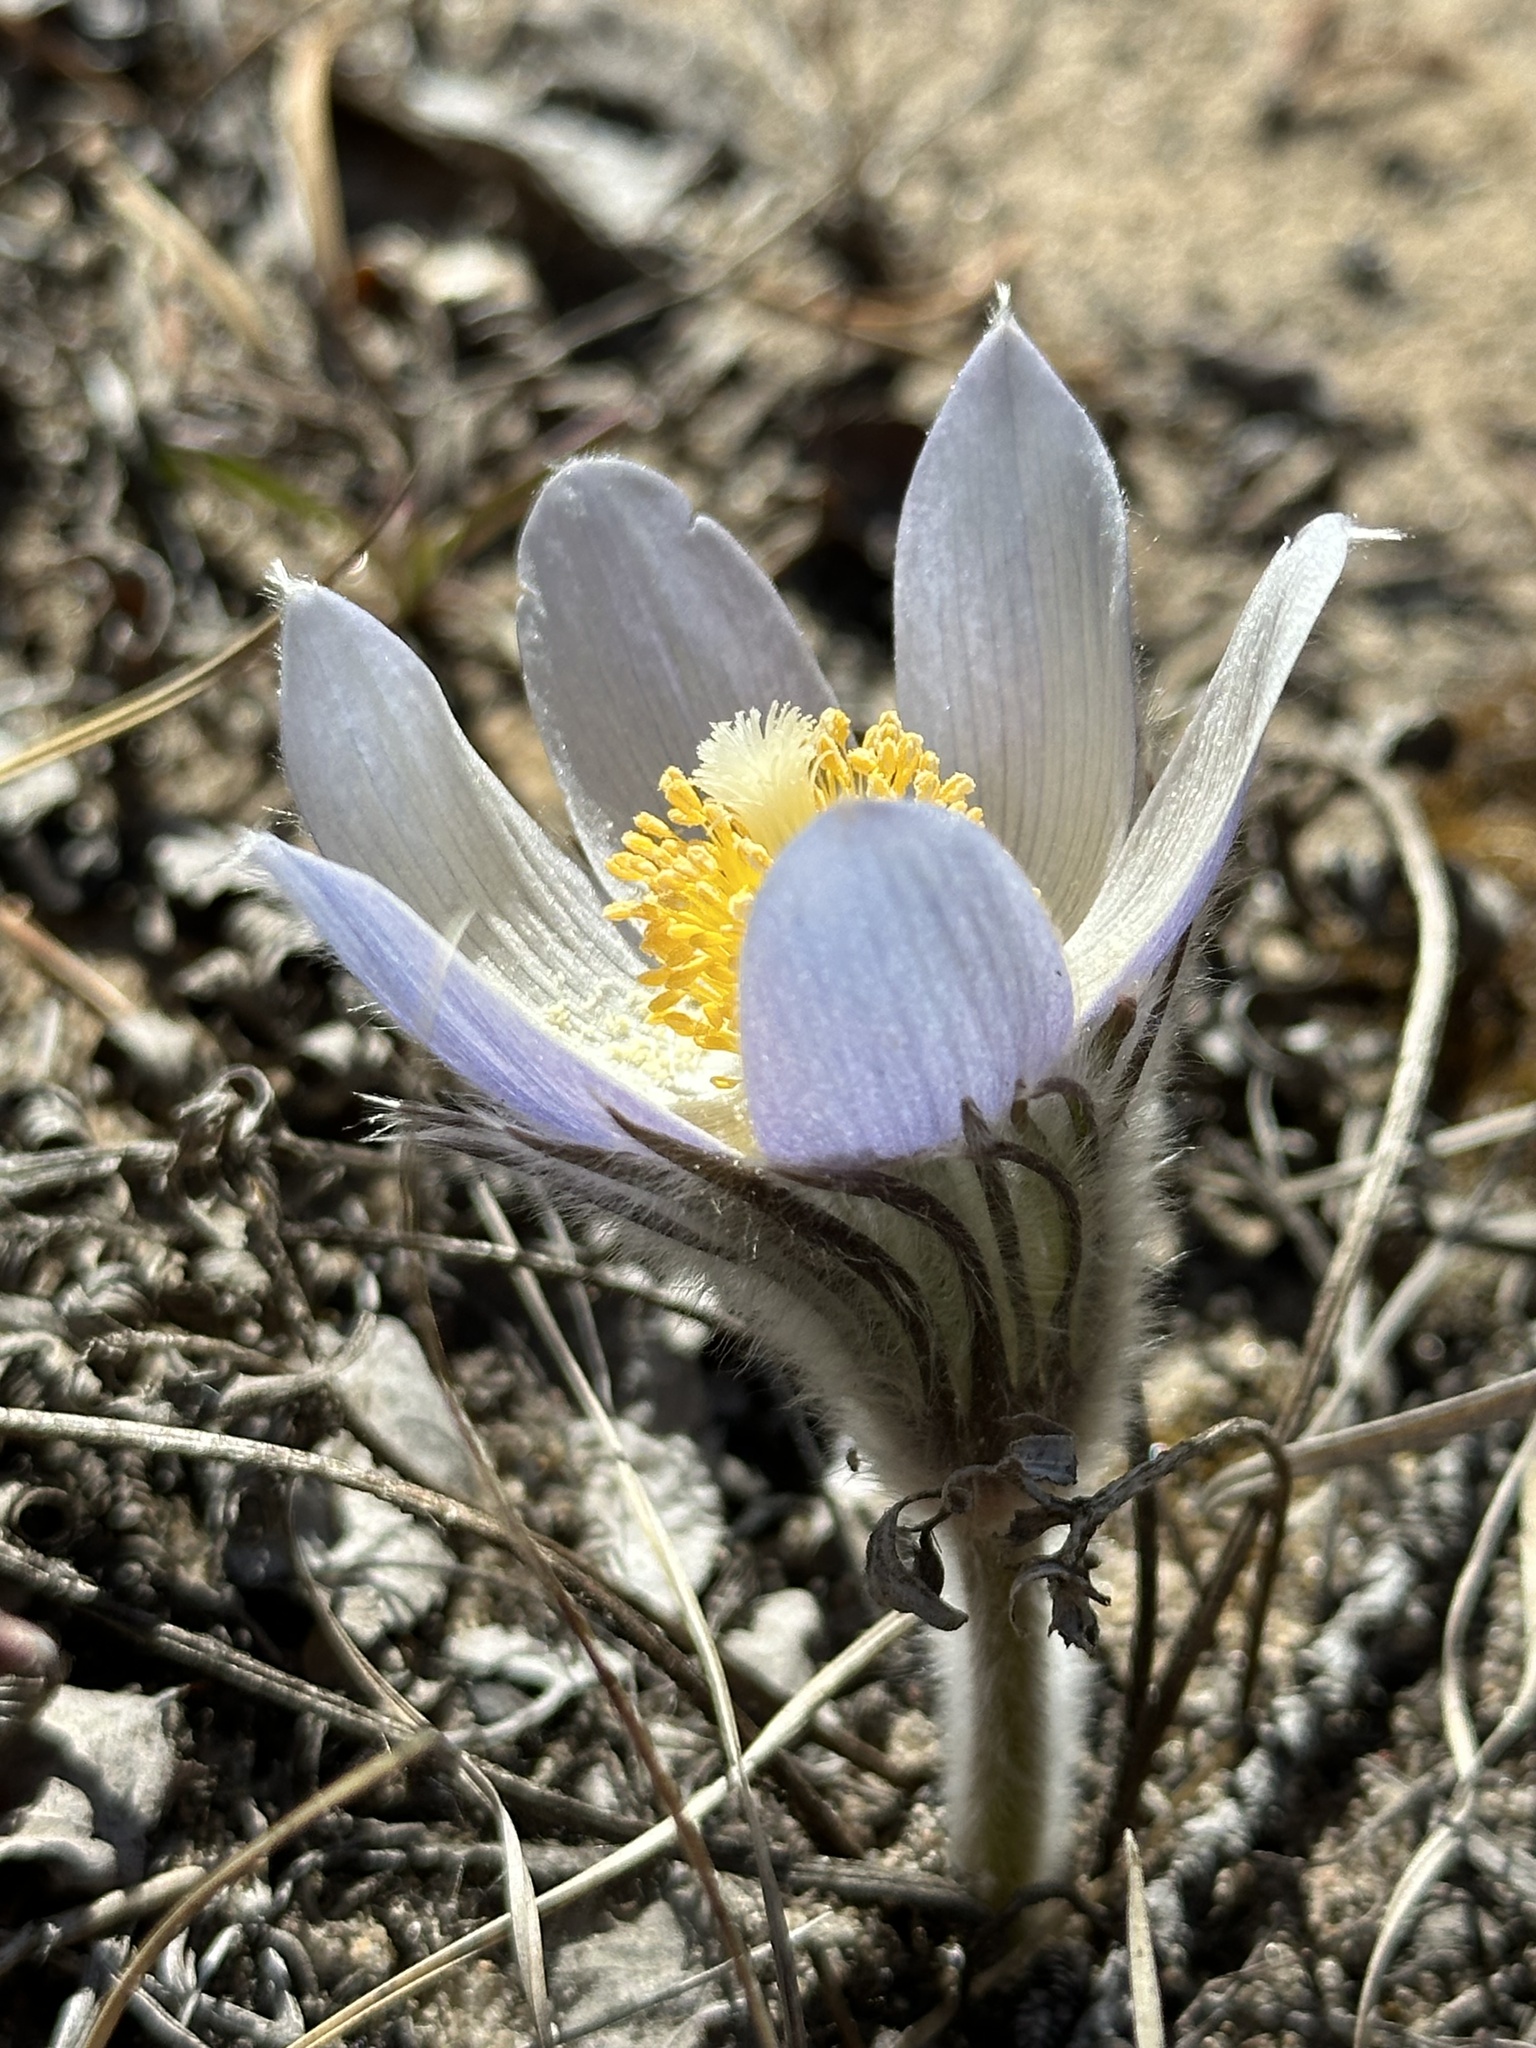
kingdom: Plantae
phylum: Tracheophyta
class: Magnoliopsida
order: Ranunculales
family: Ranunculaceae
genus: Pulsatilla
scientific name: Pulsatilla nuttalliana
